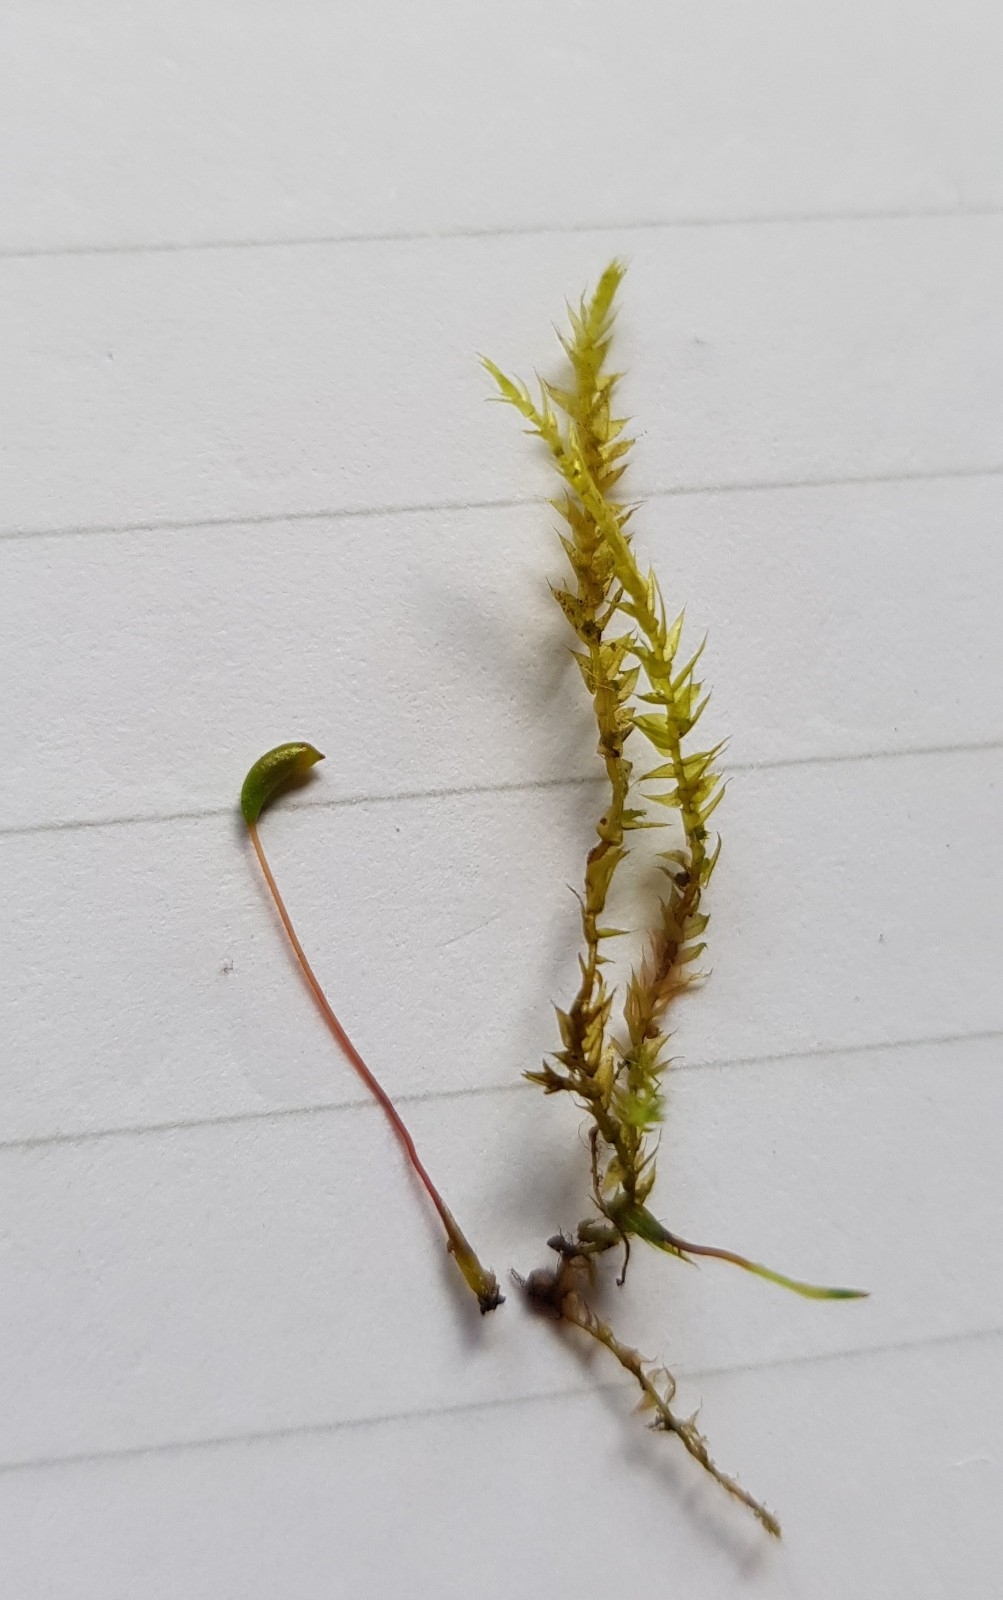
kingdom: Plantae
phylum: Bryophyta
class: Bryopsida
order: Hypnales
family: Amblystegiaceae
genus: Hygroamblystegium
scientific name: Hygroamblystegium varium
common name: Willow feather-moss
